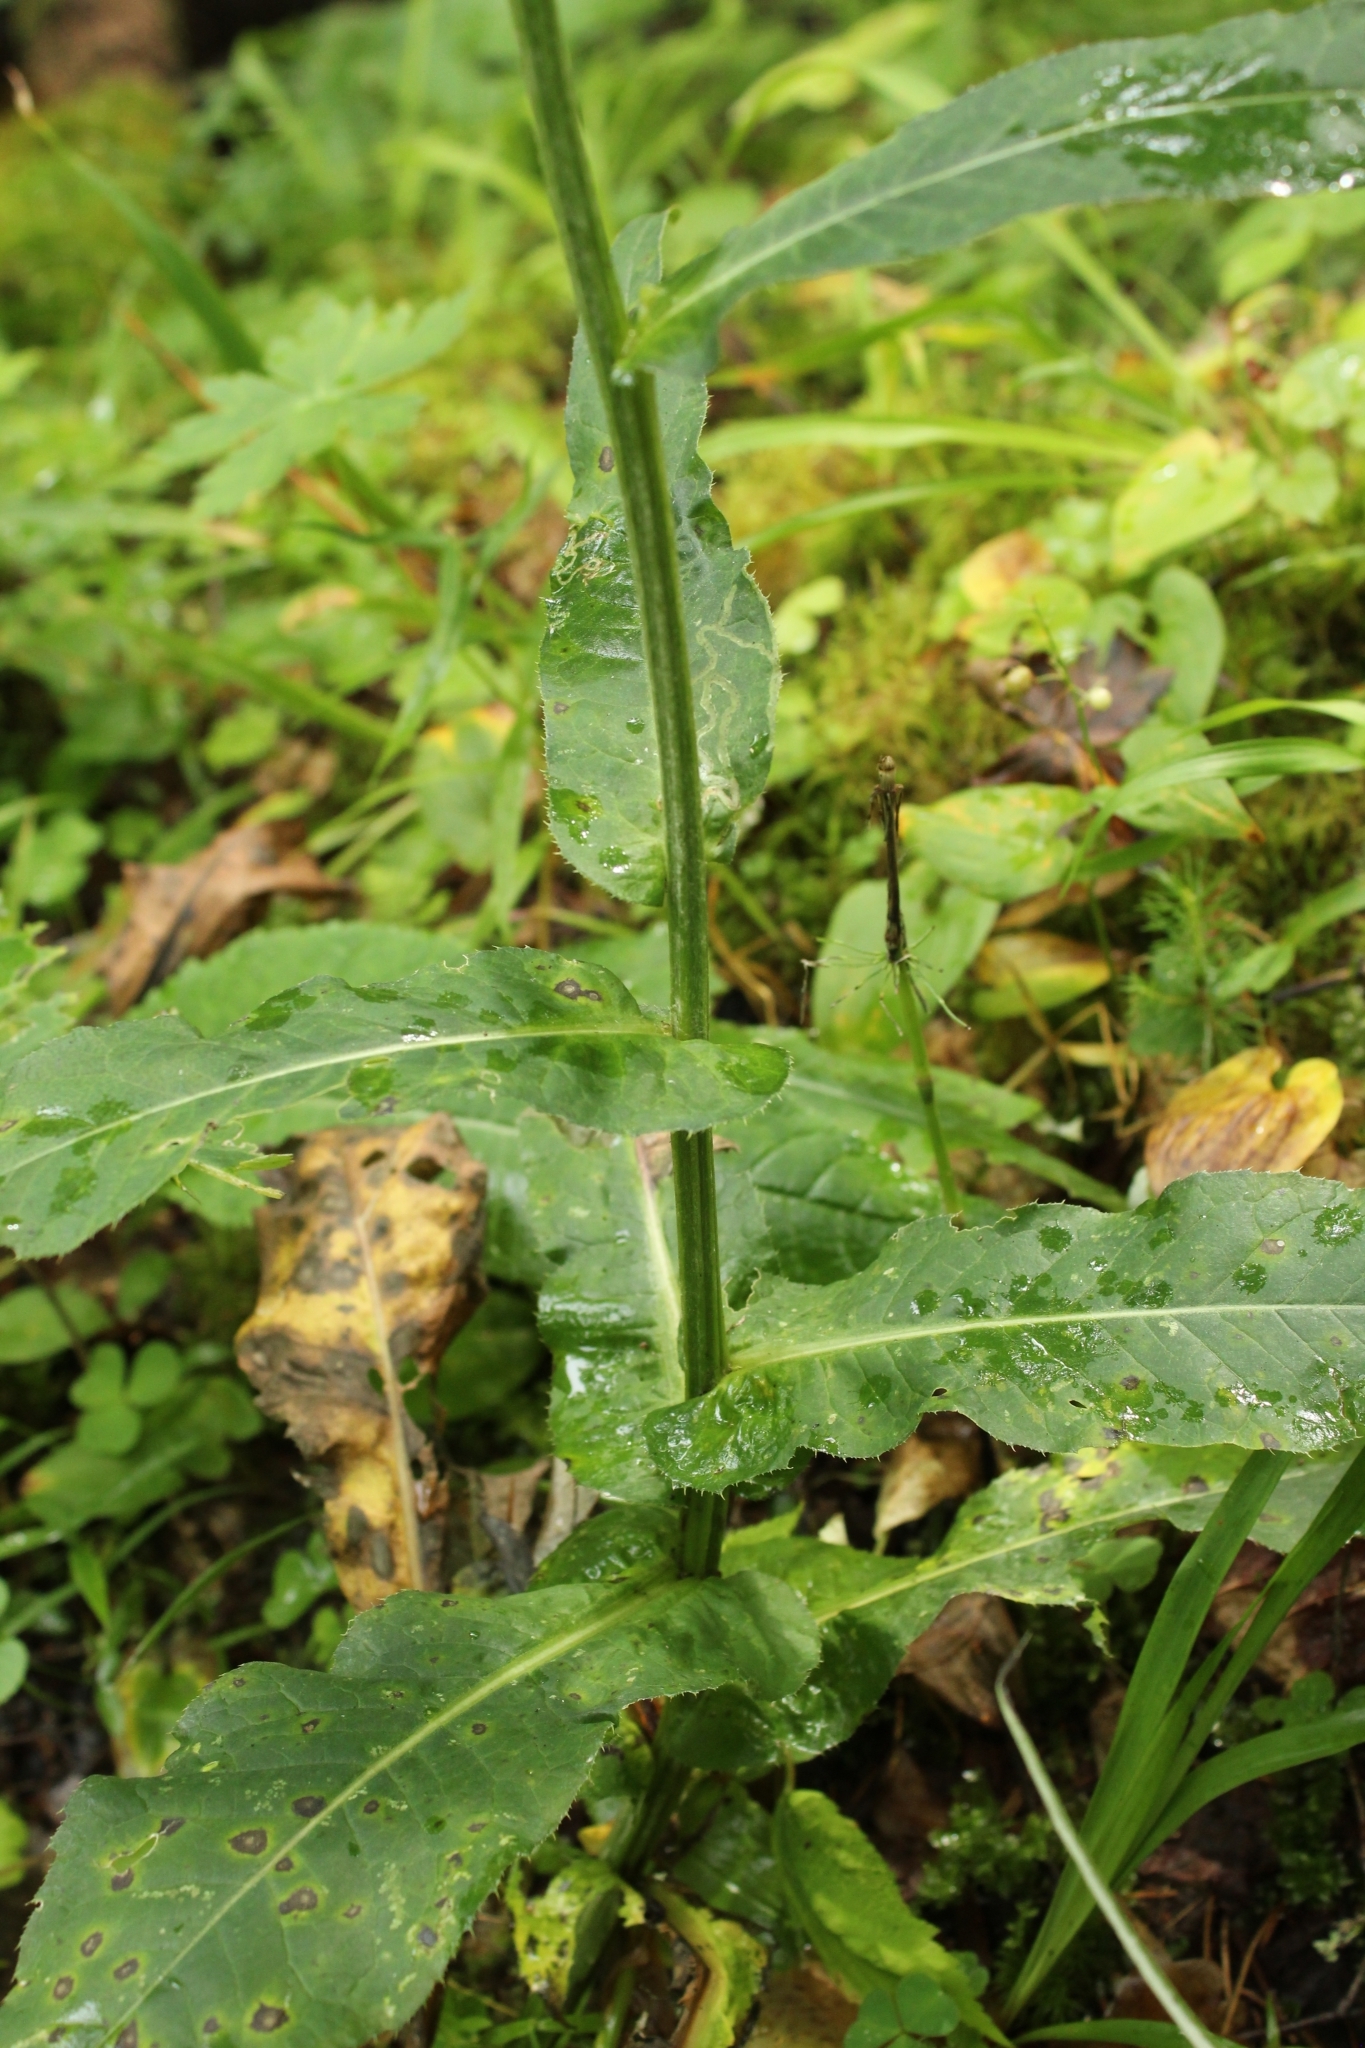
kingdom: Plantae
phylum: Tracheophyta
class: Magnoliopsida
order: Asterales
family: Asteraceae
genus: Cirsium
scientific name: Cirsium heterophyllum
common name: Melancholy thistle
